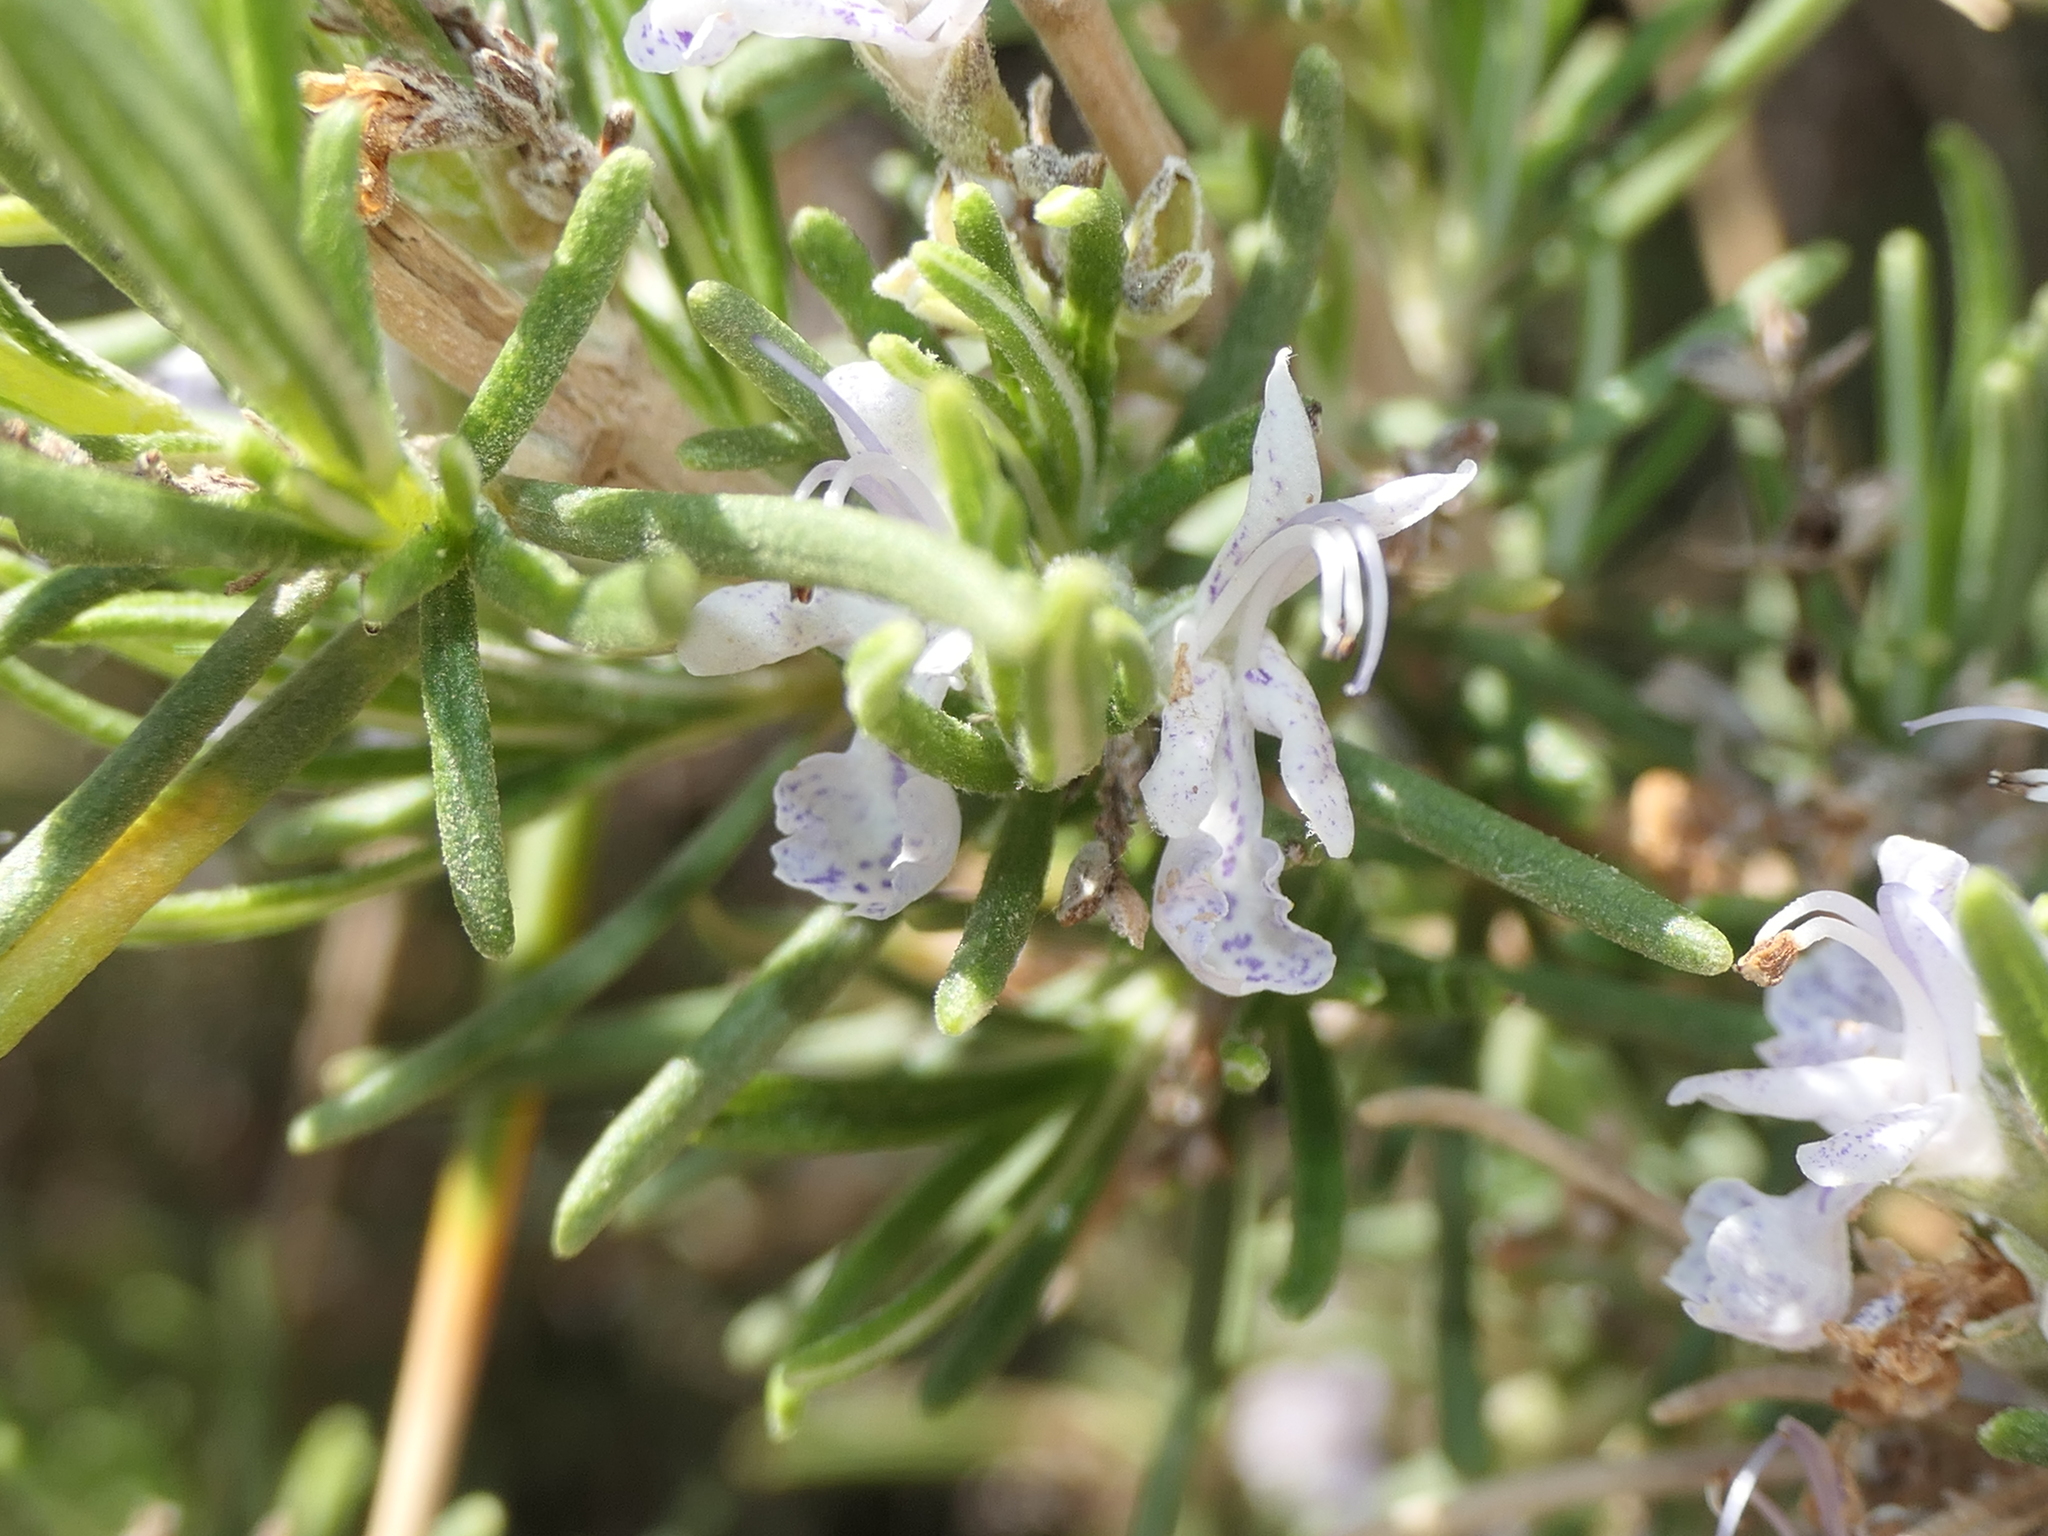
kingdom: Plantae
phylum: Tracheophyta
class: Magnoliopsida
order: Lamiales
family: Lamiaceae
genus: Salvia
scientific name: Salvia rosmarinus
